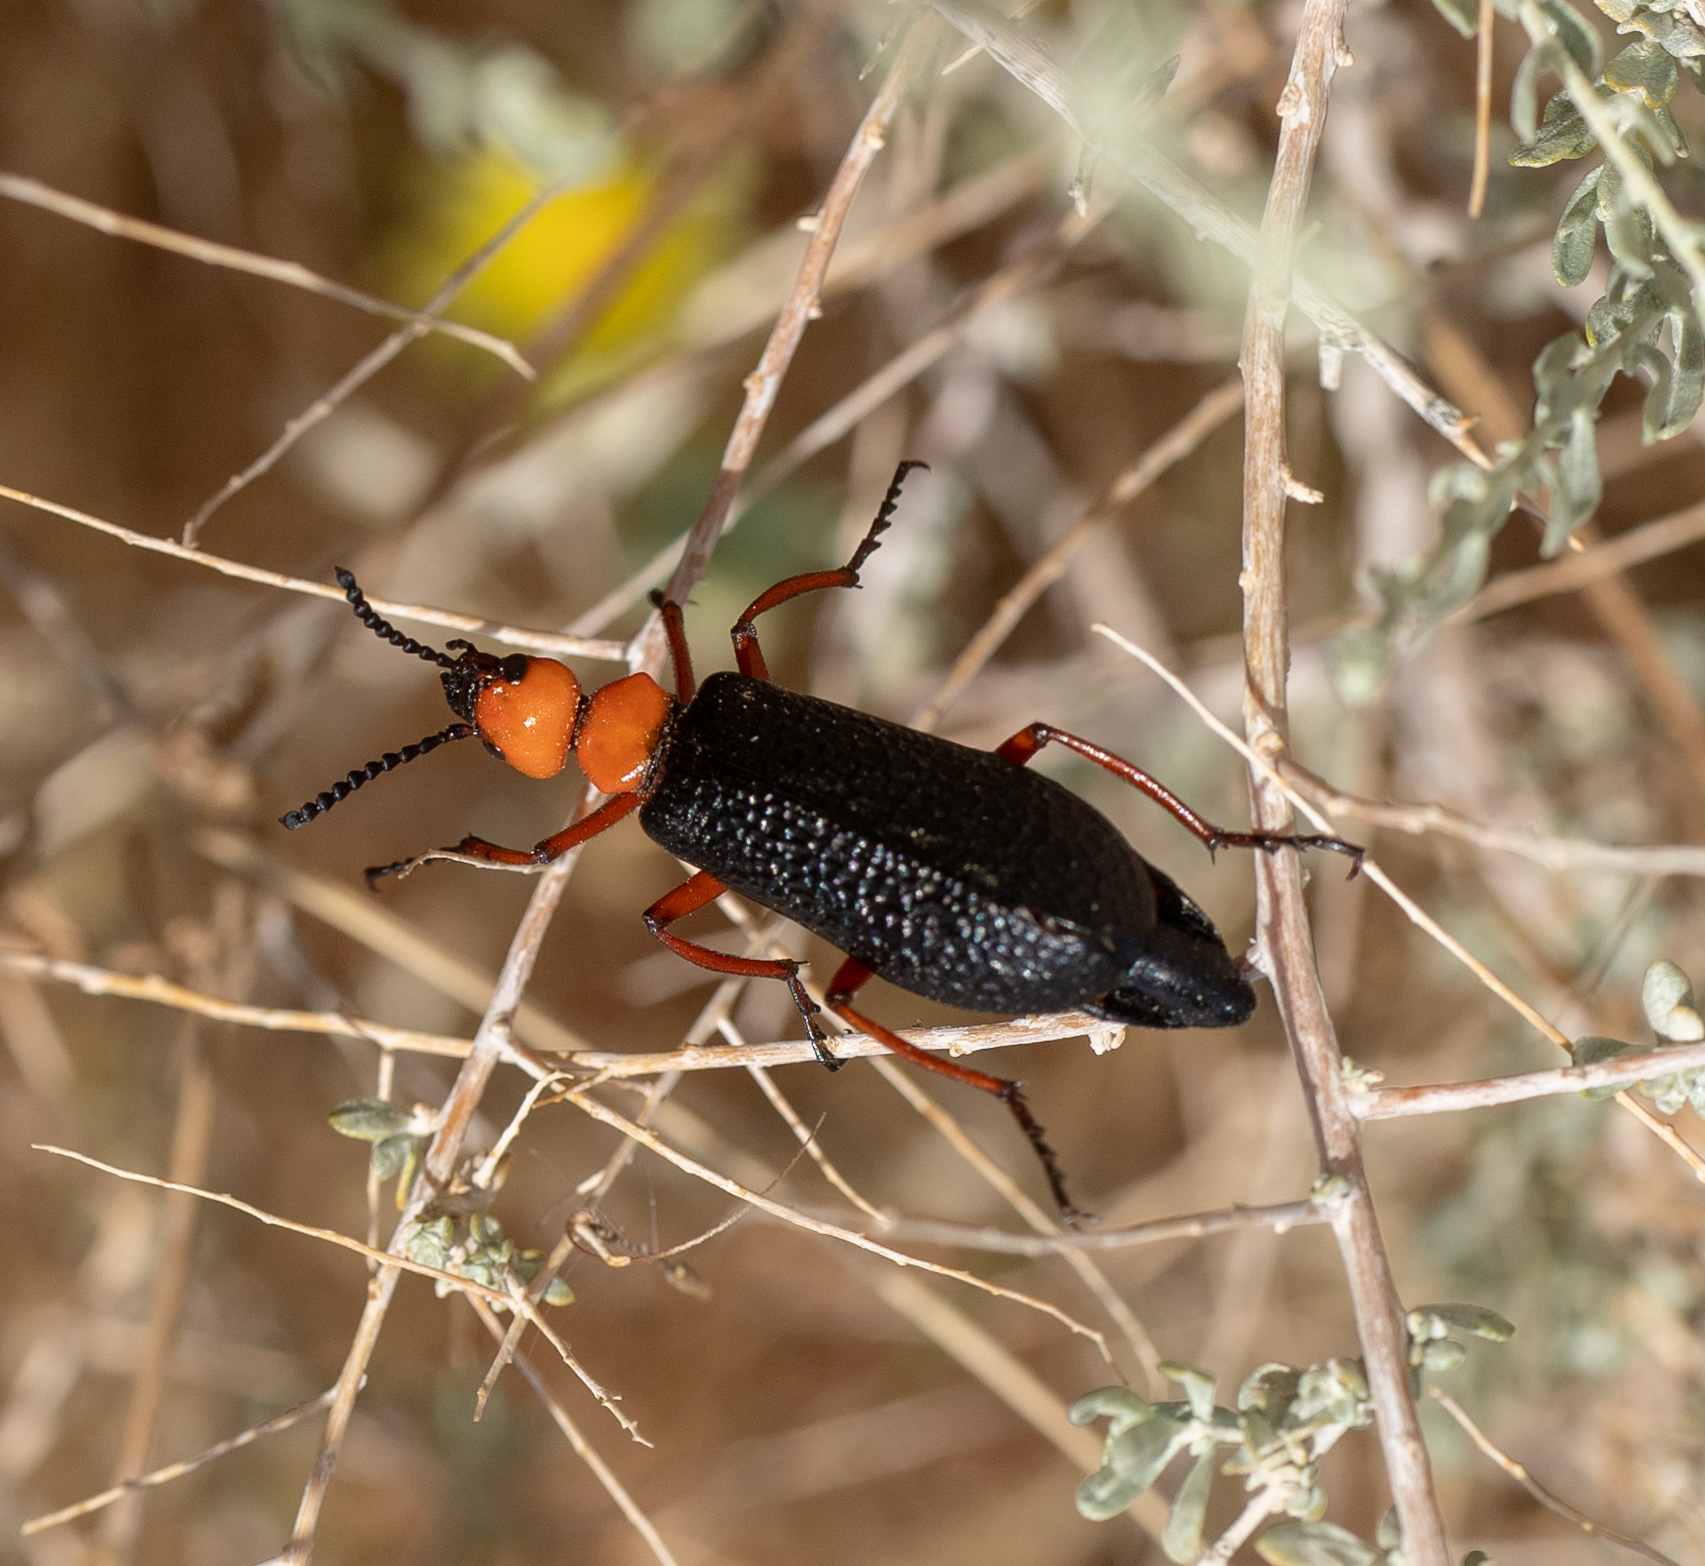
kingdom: Animalia
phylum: Arthropoda
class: Insecta
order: Coleoptera
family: Meloidae
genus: Lytta
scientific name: Lytta magister
